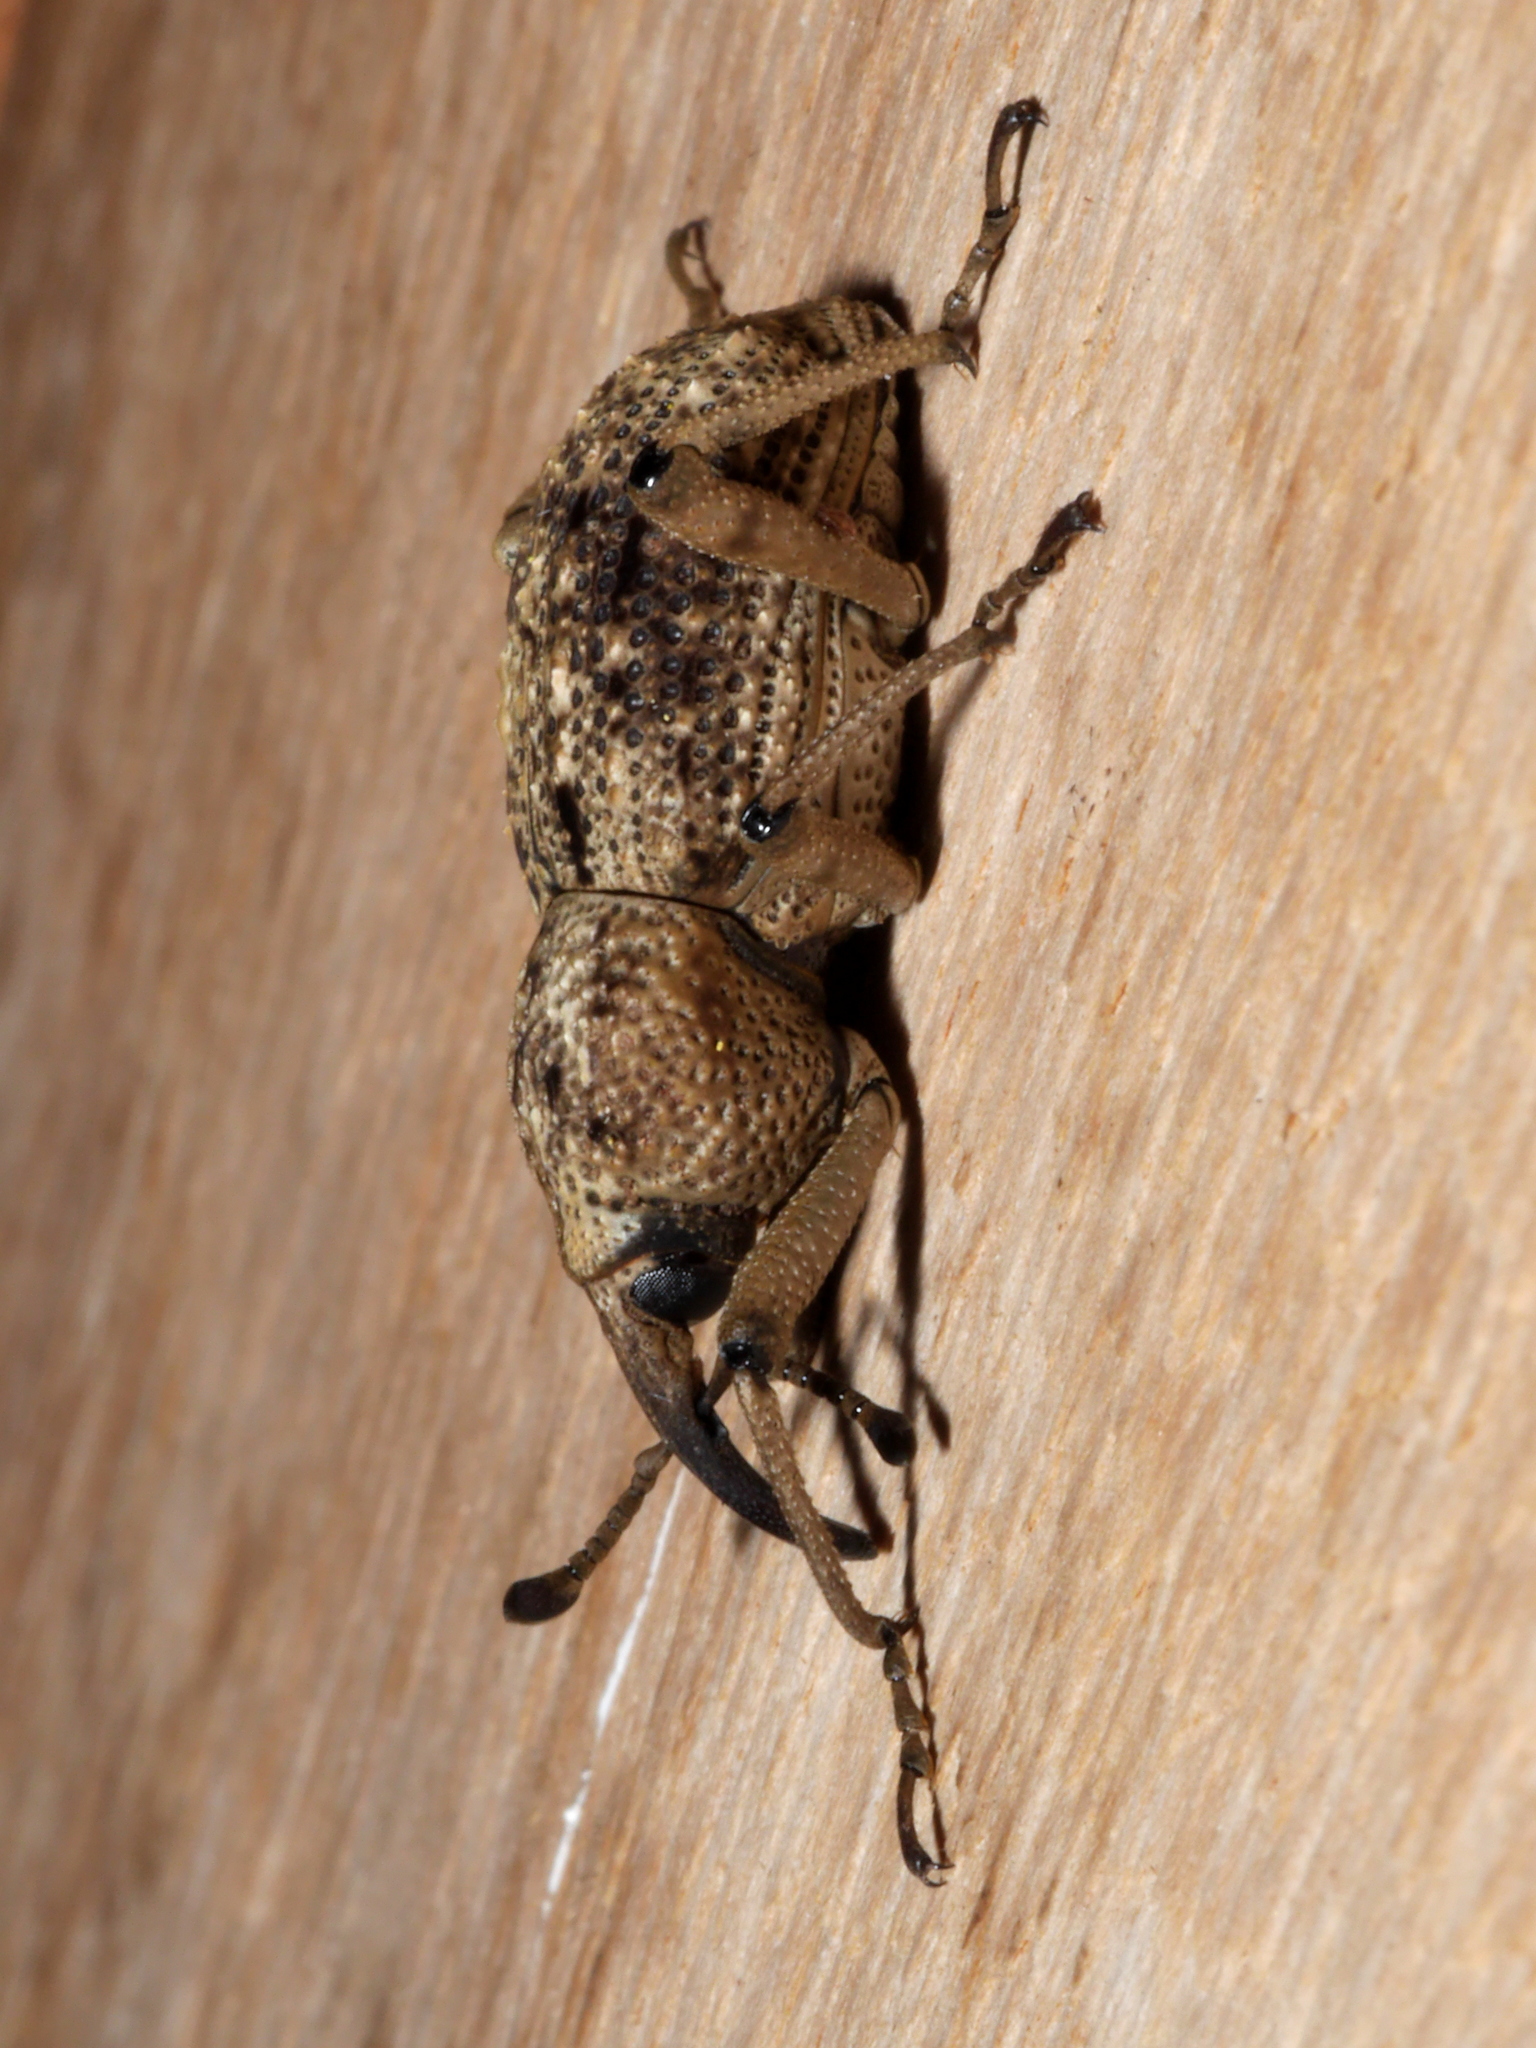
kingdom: Animalia
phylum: Arthropoda
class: Insecta
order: Coleoptera
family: Dryophthoridae
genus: Sipalinus
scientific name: Sipalinus guineensis
